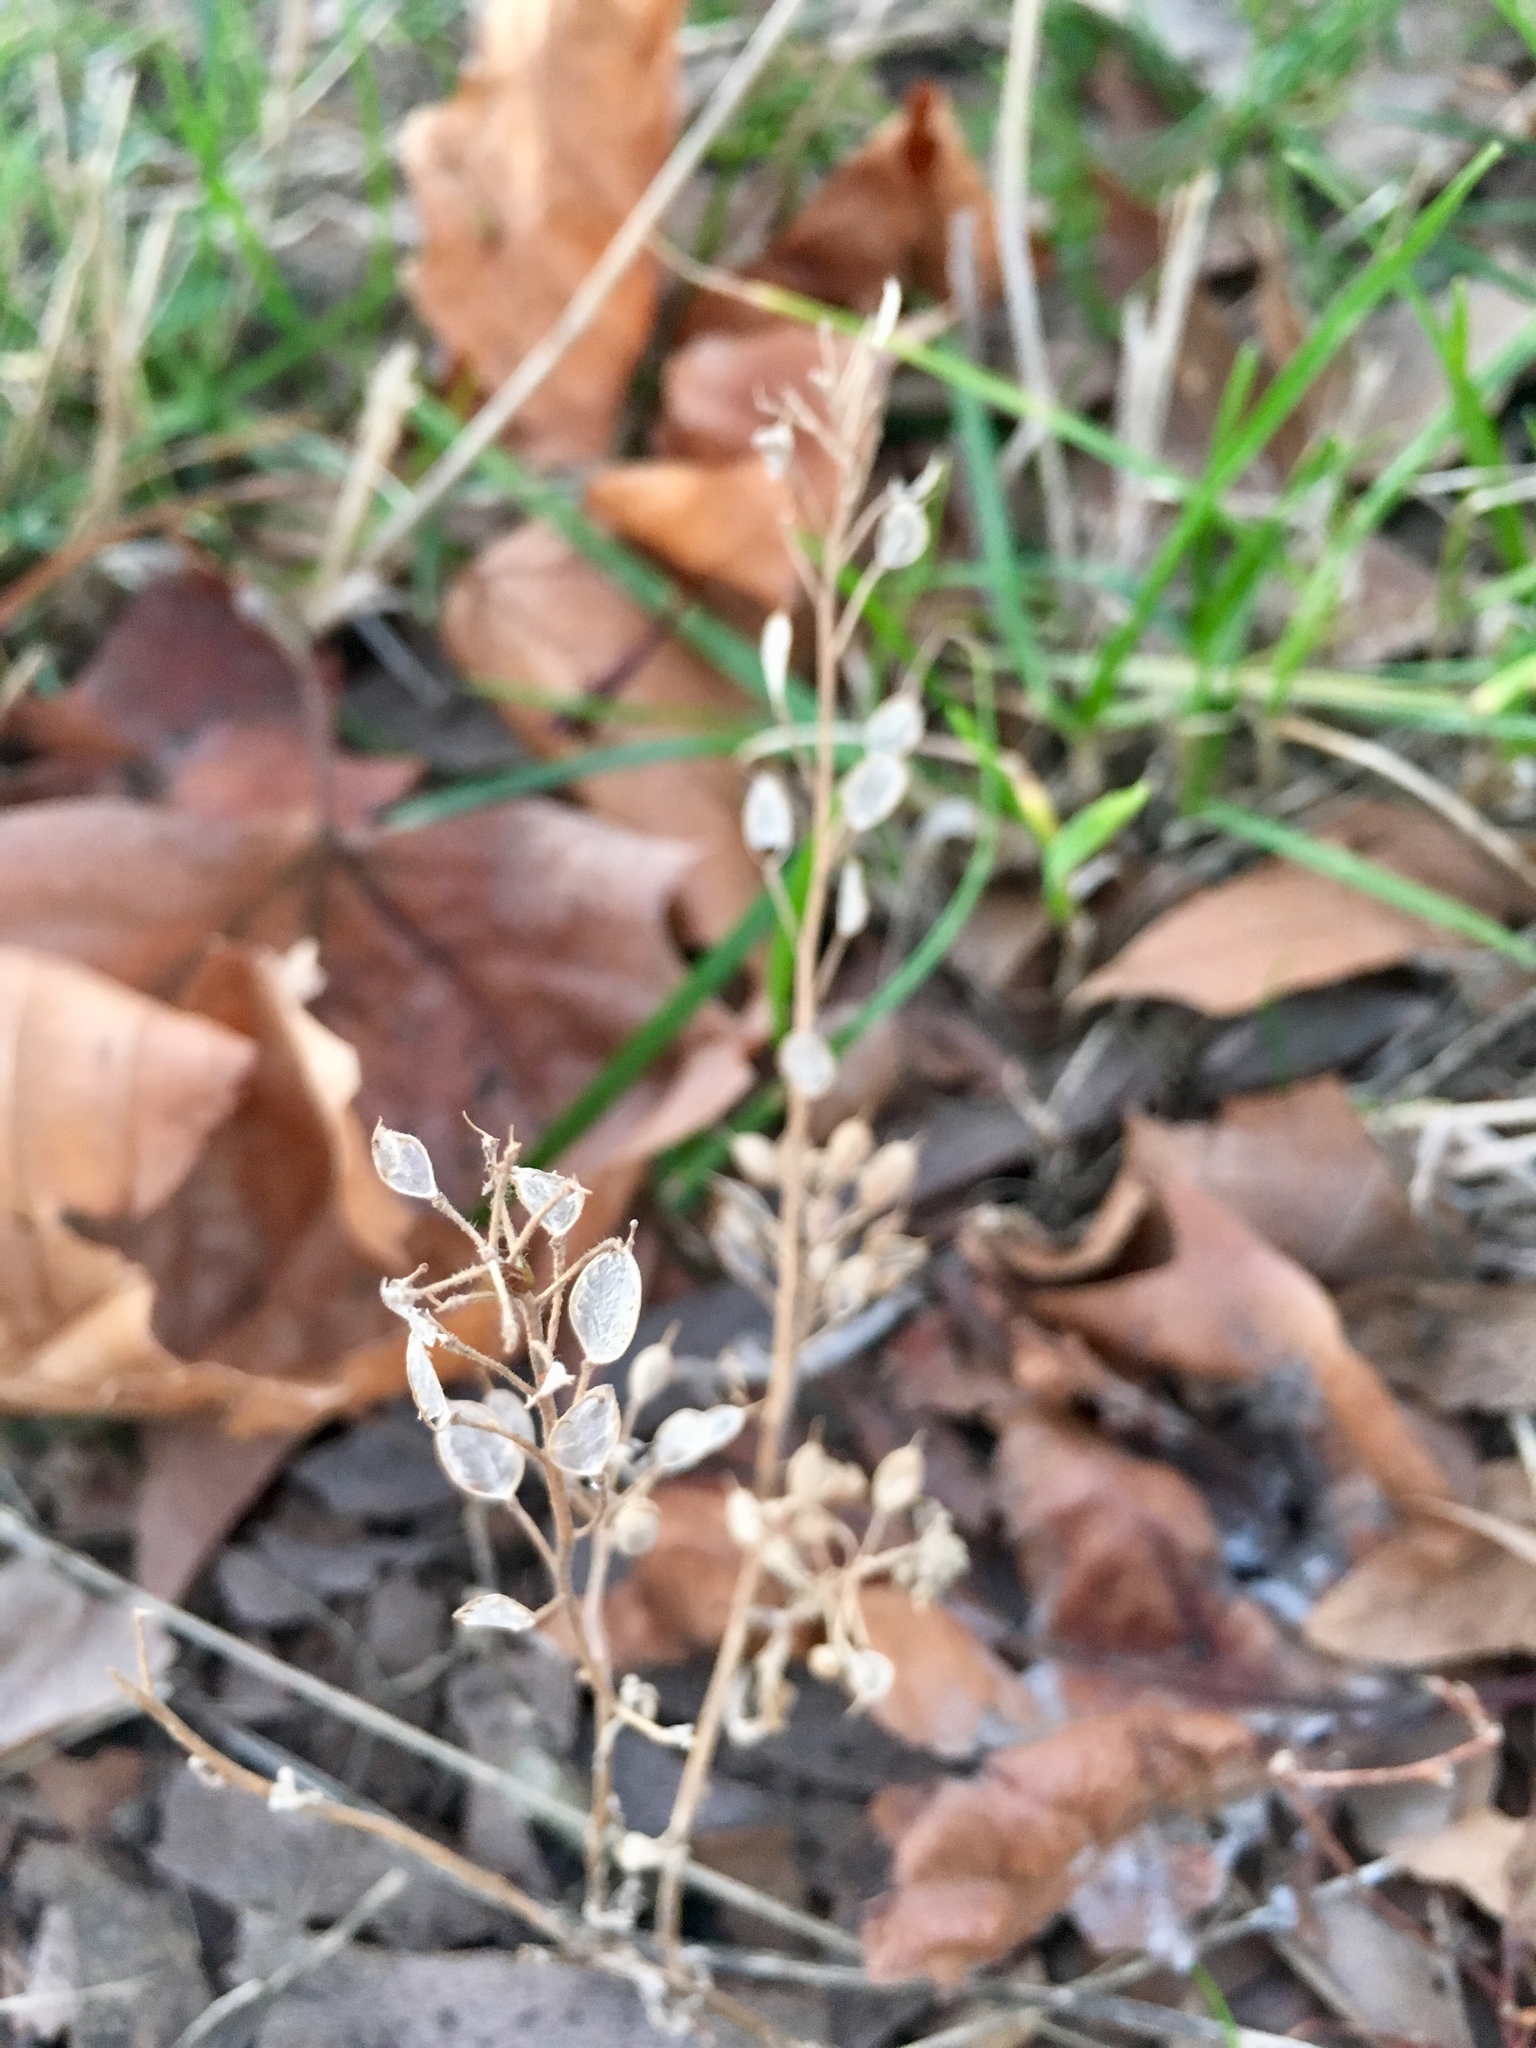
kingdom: Plantae
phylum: Tracheophyta
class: Magnoliopsida
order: Brassicales
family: Brassicaceae
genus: Berteroa
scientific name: Berteroa incana
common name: Hoary alison
